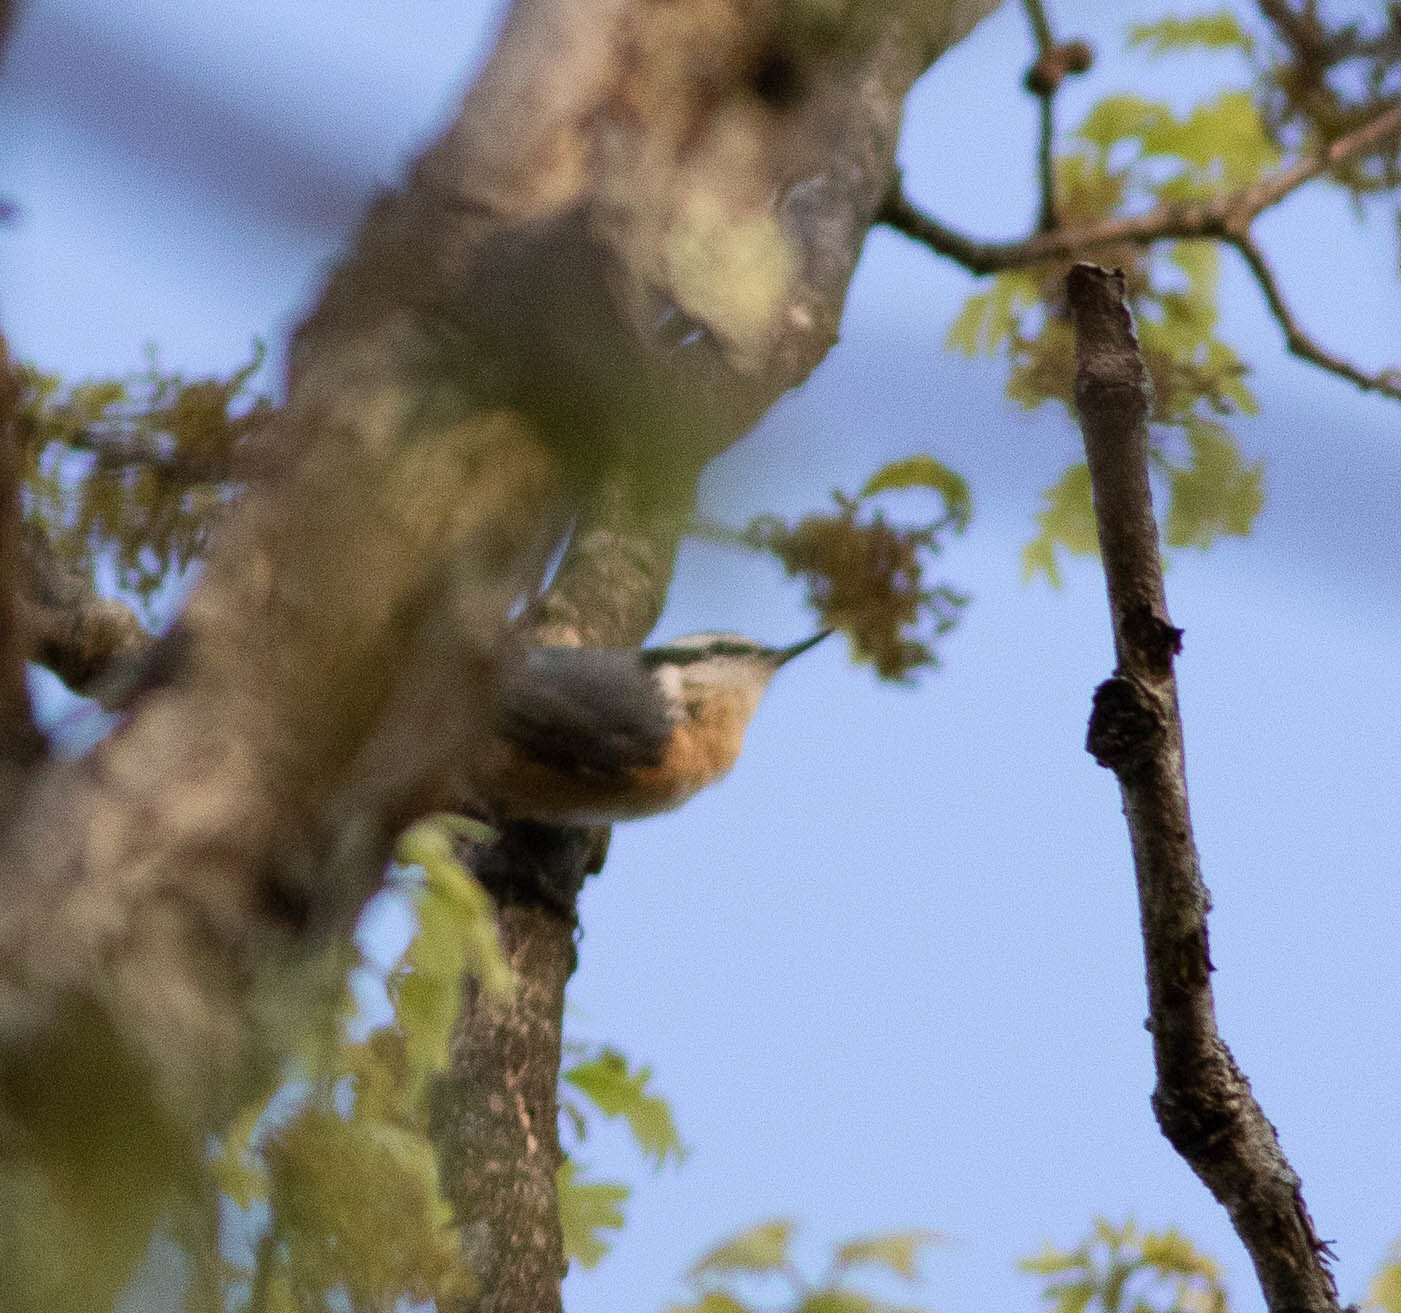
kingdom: Animalia
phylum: Chordata
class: Aves
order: Passeriformes
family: Sittidae
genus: Sitta
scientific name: Sitta canadensis
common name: Red-breasted nuthatch
